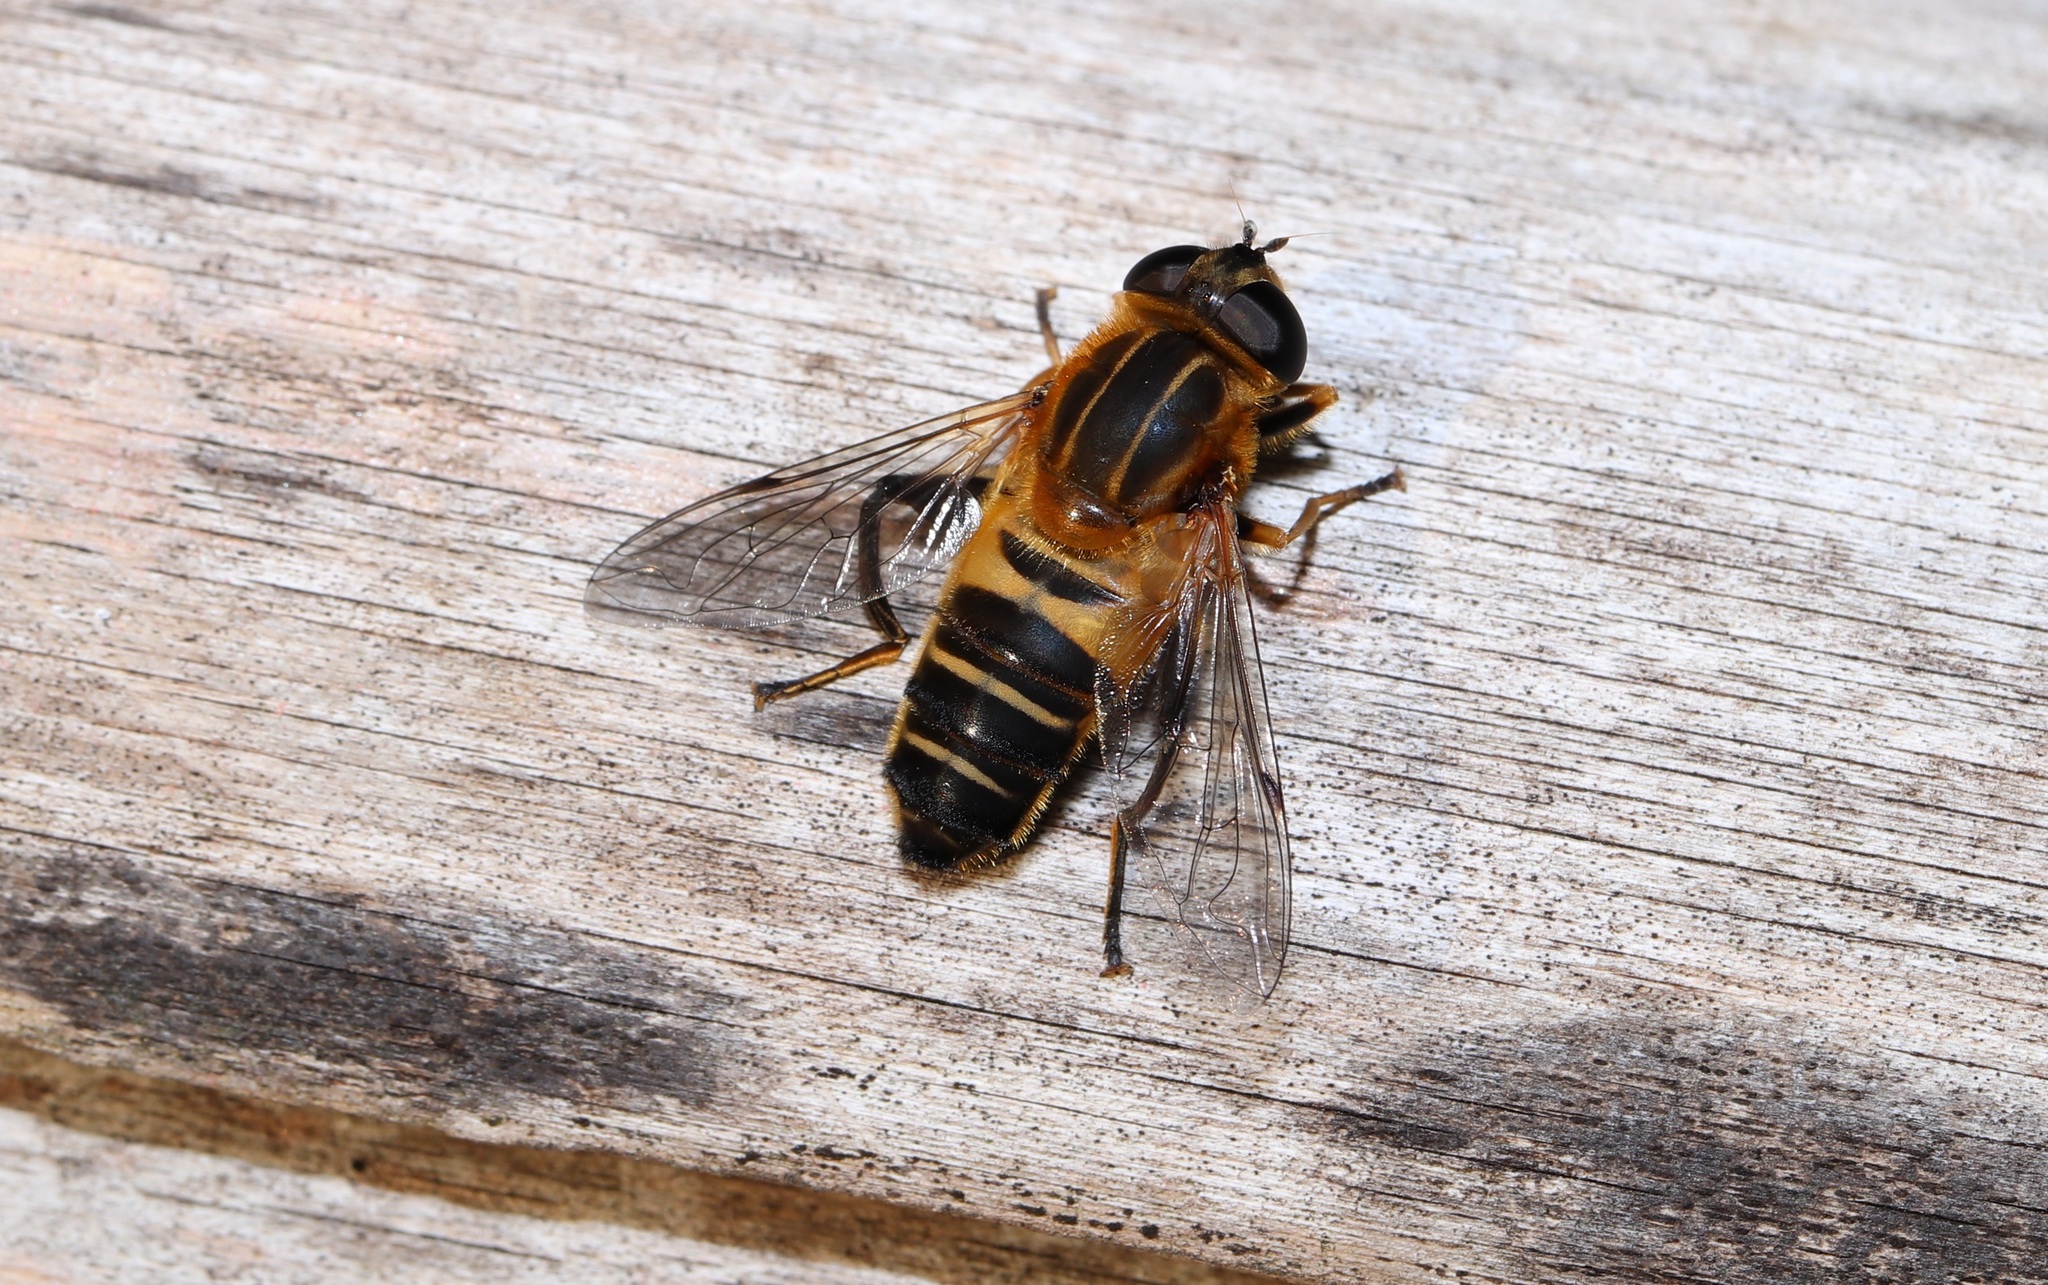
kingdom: Animalia
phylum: Arthropoda
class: Insecta
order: Diptera
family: Syrphidae
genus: Helophilus
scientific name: Helophilus eristaloideus
